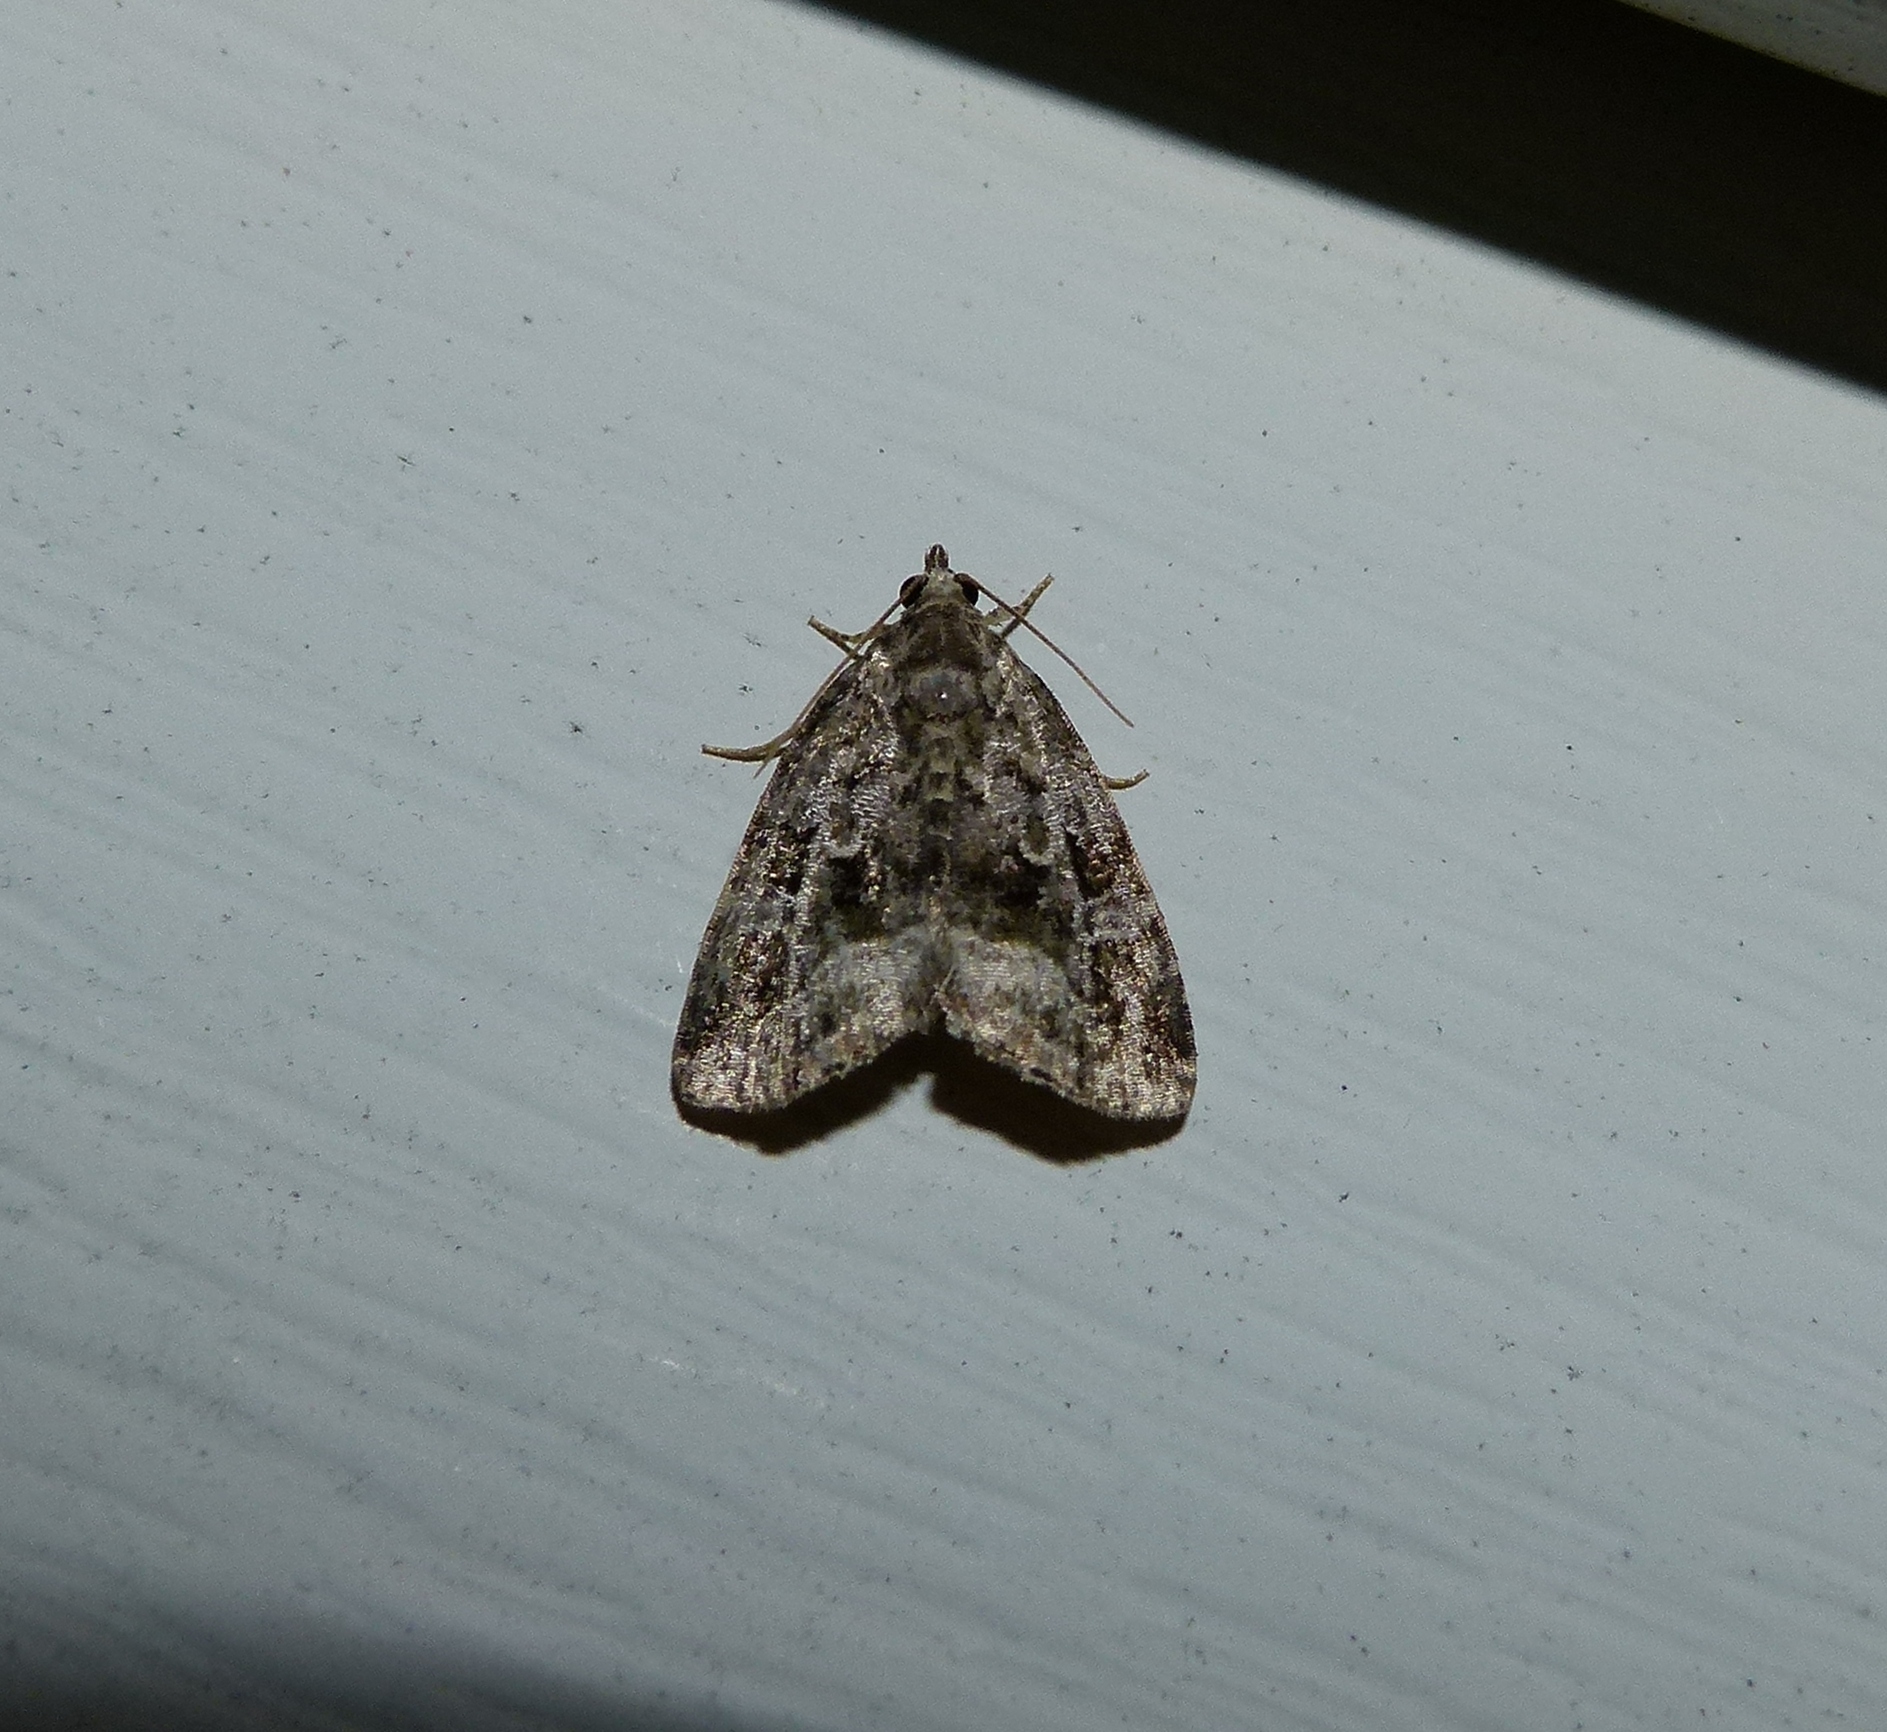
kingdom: Animalia
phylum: Arthropoda
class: Insecta
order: Lepidoptera
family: Noctuidae
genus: Protodeltote
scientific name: Protodeltote muscosula
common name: Large mossy glyph
